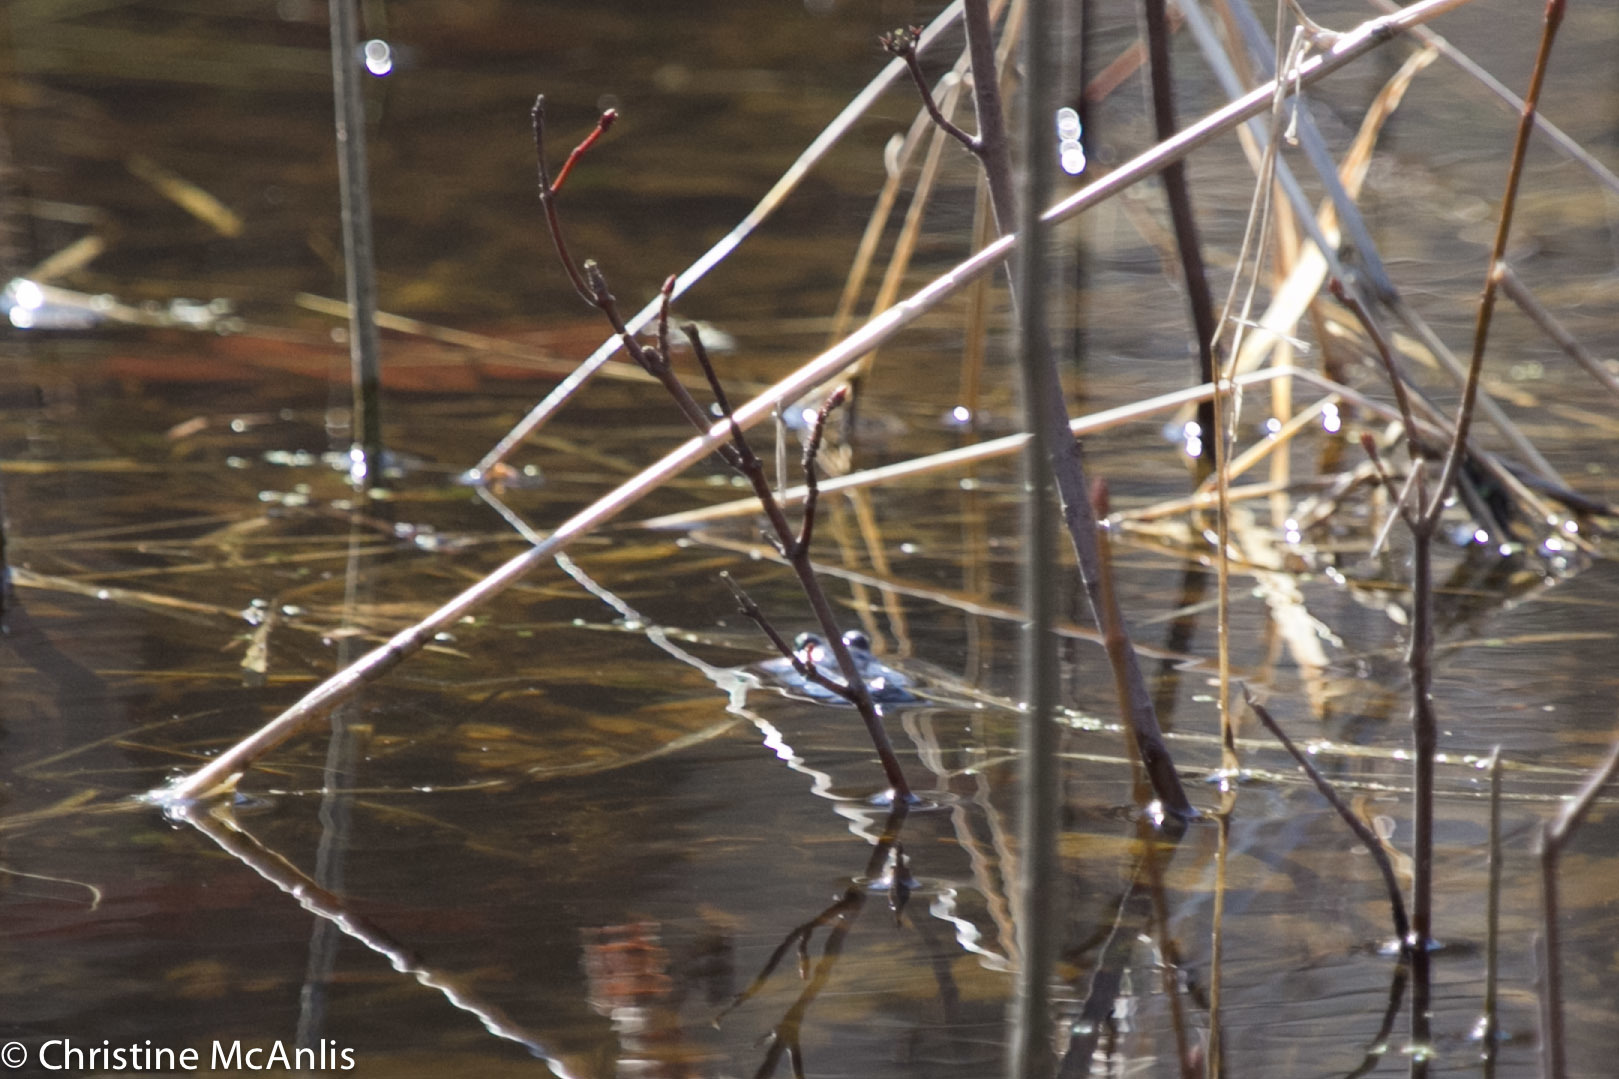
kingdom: Animalia
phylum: Chordata
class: Amphibia
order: Anura
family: Ranidae
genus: Lithobates
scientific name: Lithobates
